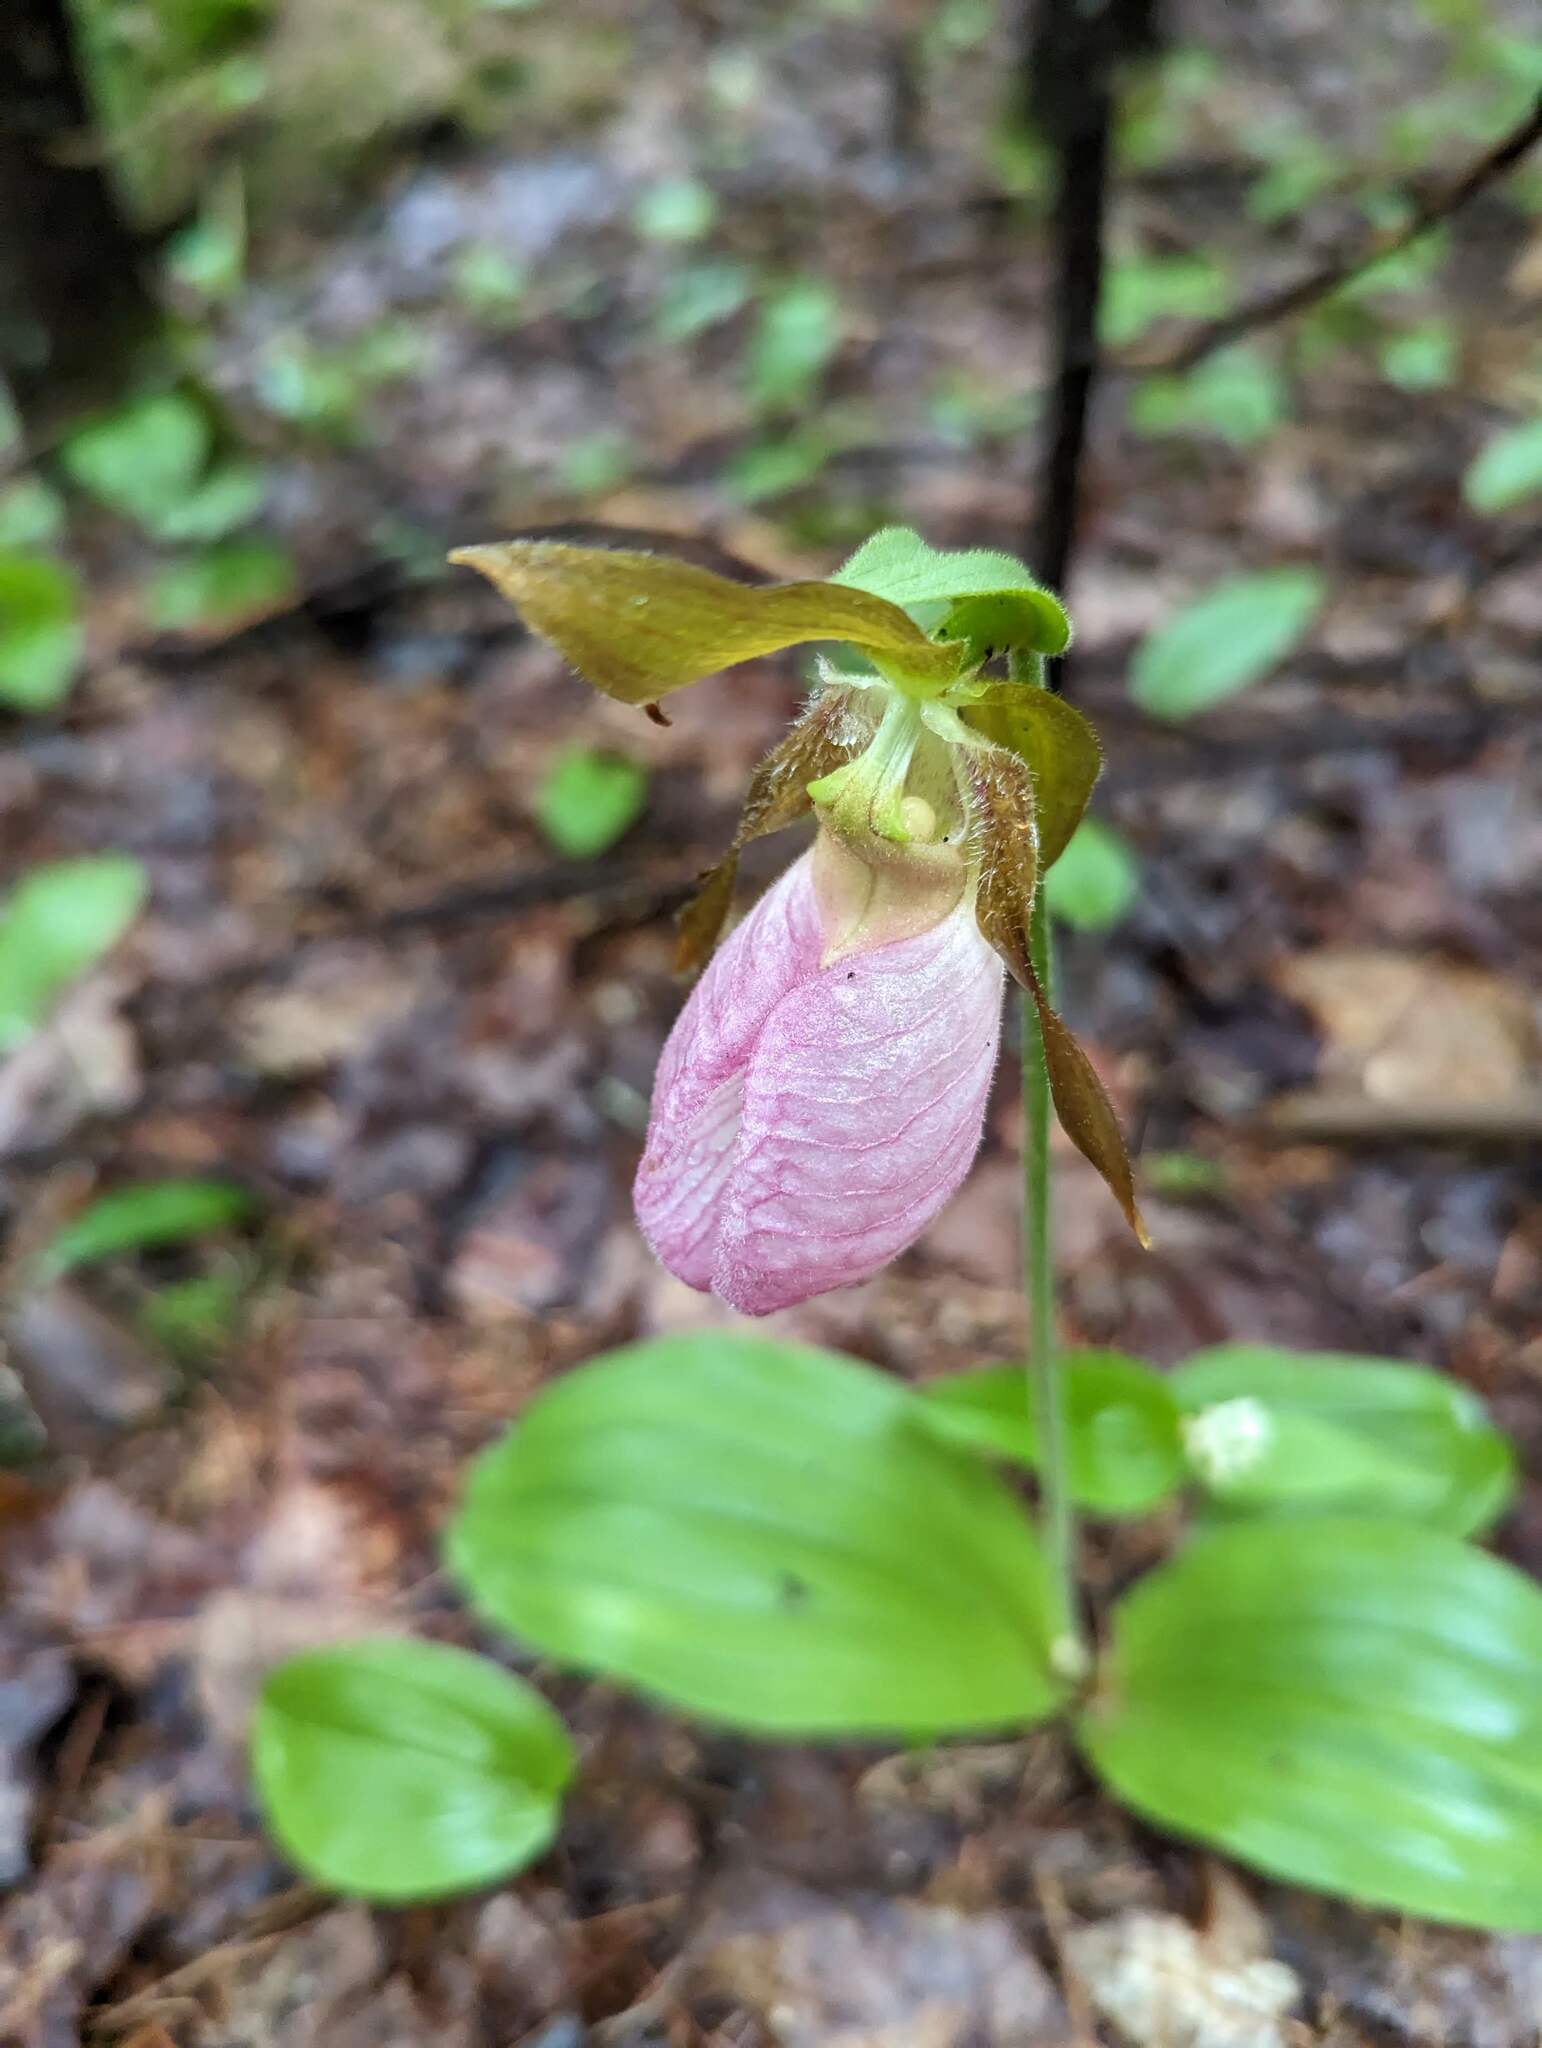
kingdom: Plantae
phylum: Tracheophyta
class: Liliopsida
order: Asparagales
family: Orchidaceae
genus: Cypripedium
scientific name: Cypripedium acaule
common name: Pink lady's-slipper
